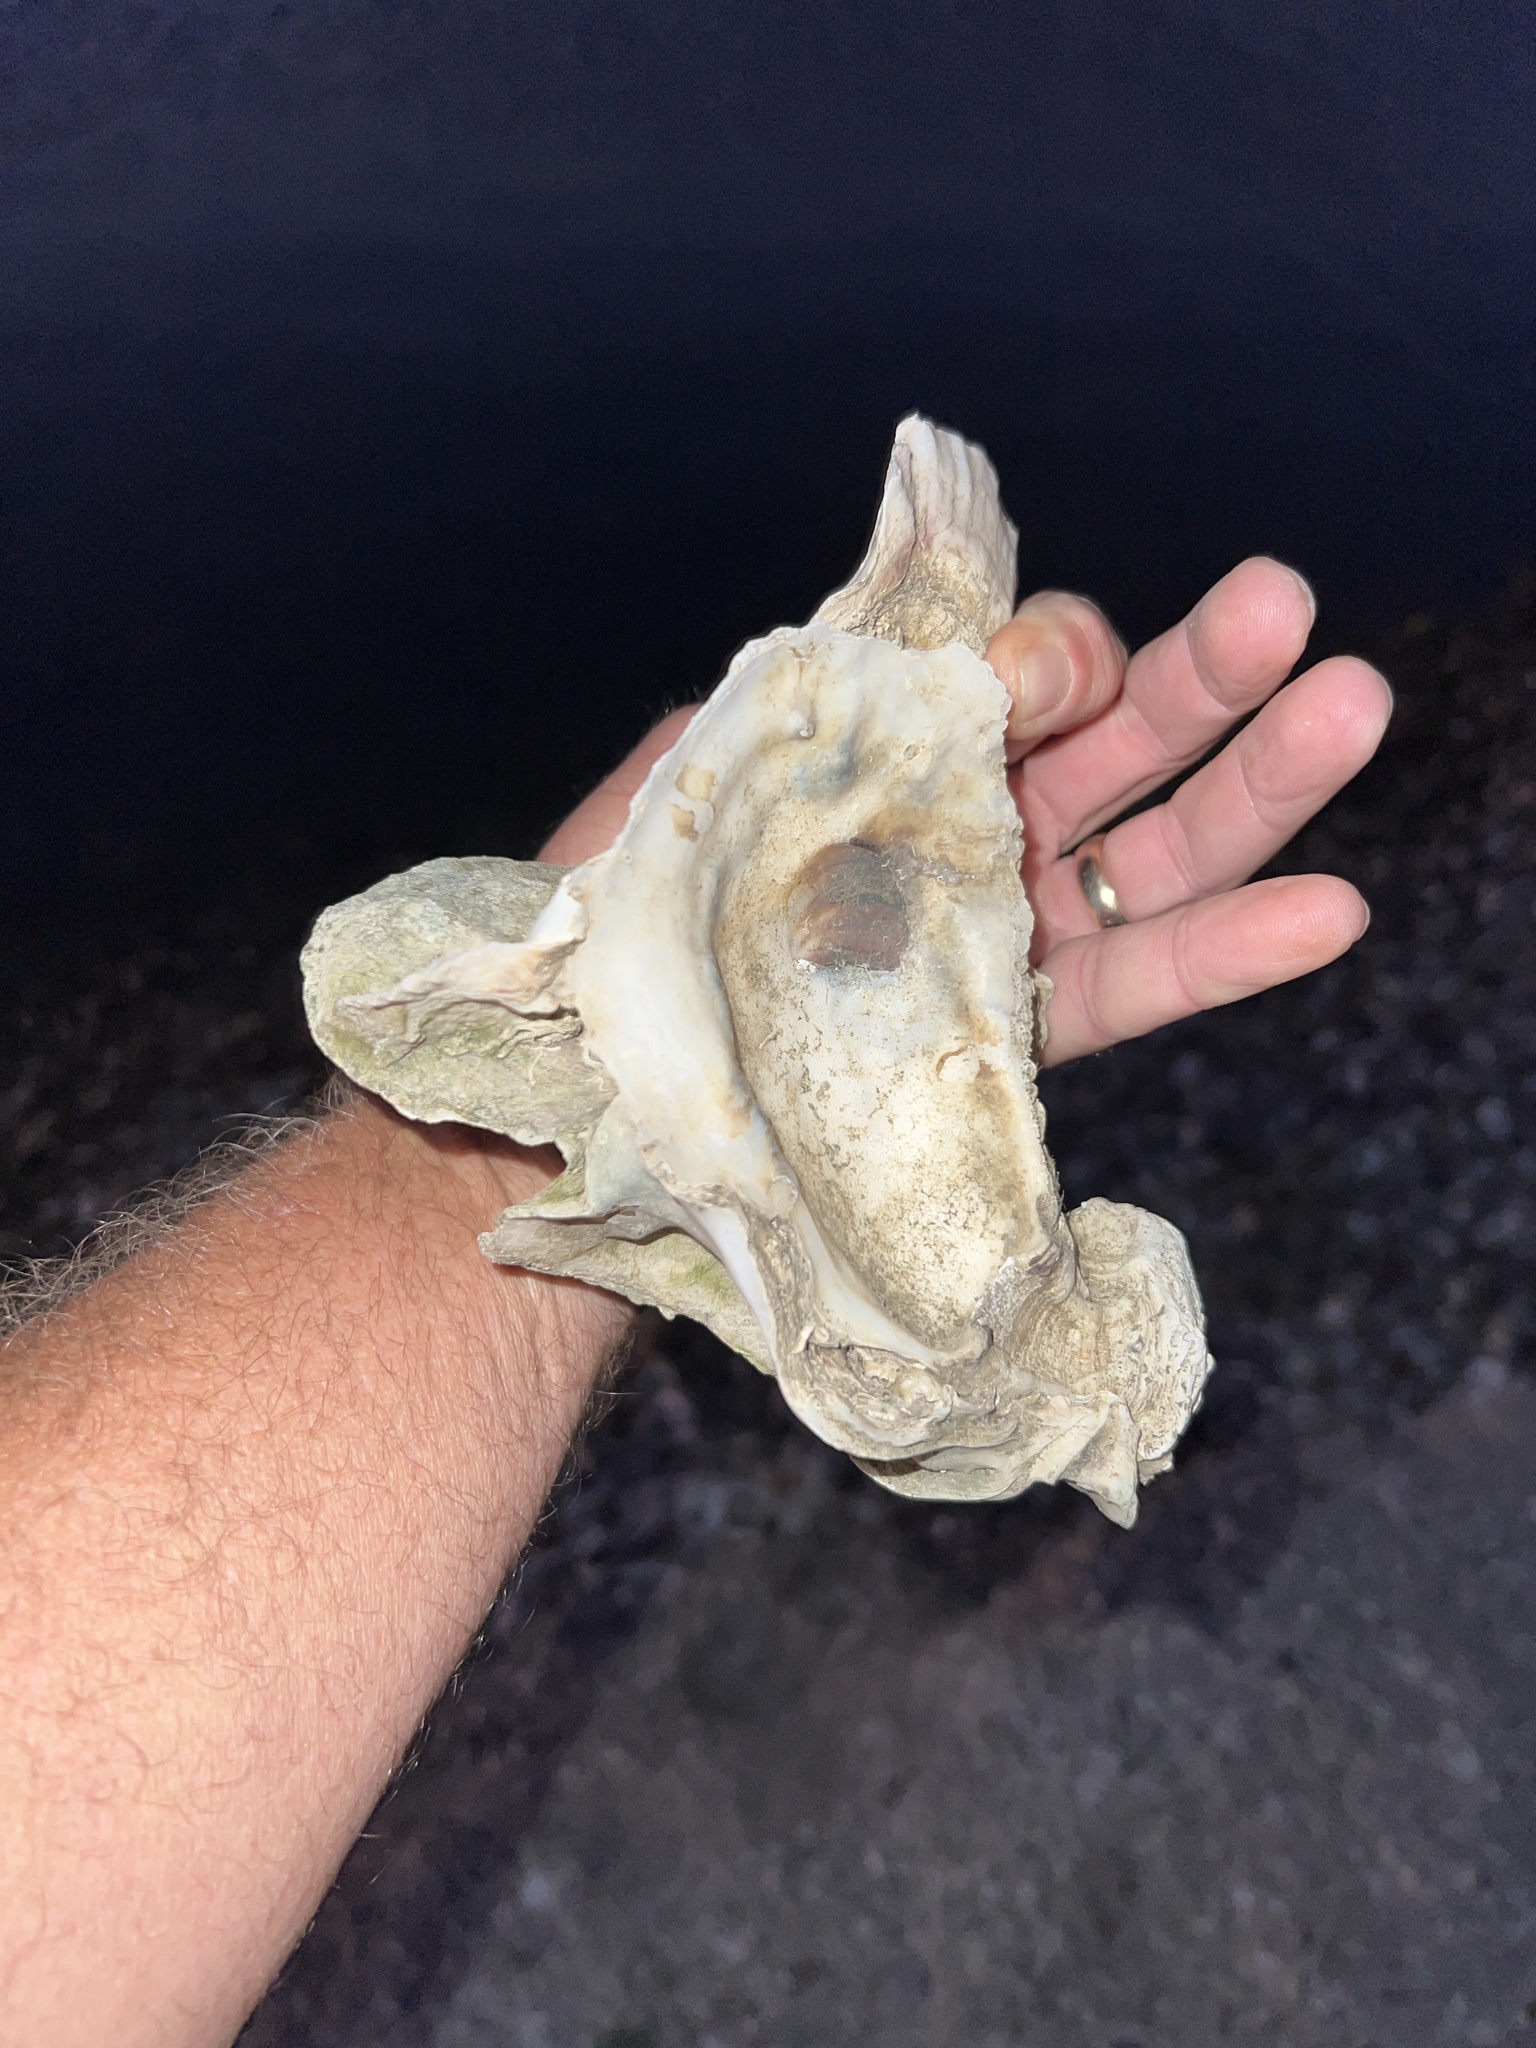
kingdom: Animalia
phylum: Mollusca
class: Bivalvia
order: Ostreida
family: Ostreidae
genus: Crassostrea
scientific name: Crassostrea virginica
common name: American oyster
